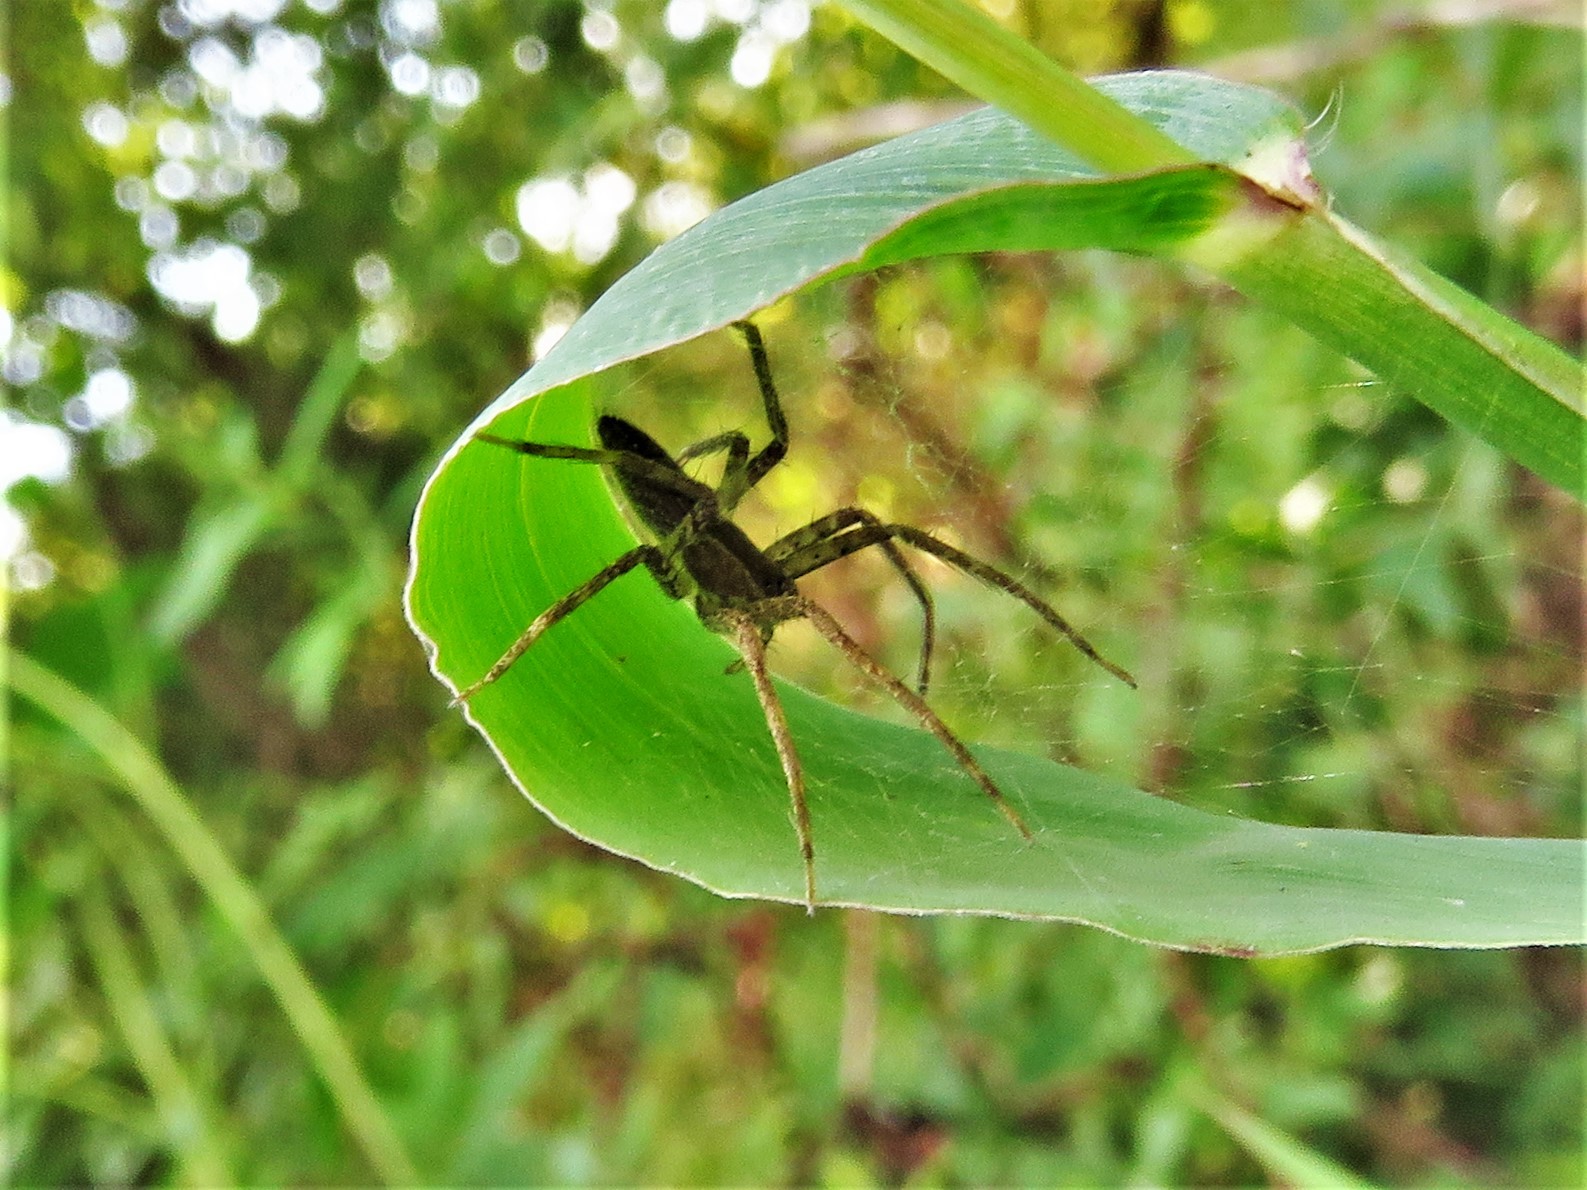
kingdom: Animalia
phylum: Arthropoda
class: Arachnida
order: Araneae
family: Pisauridae
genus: Pisaurina
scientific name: Pisaurina mira
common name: American nursery web spider
